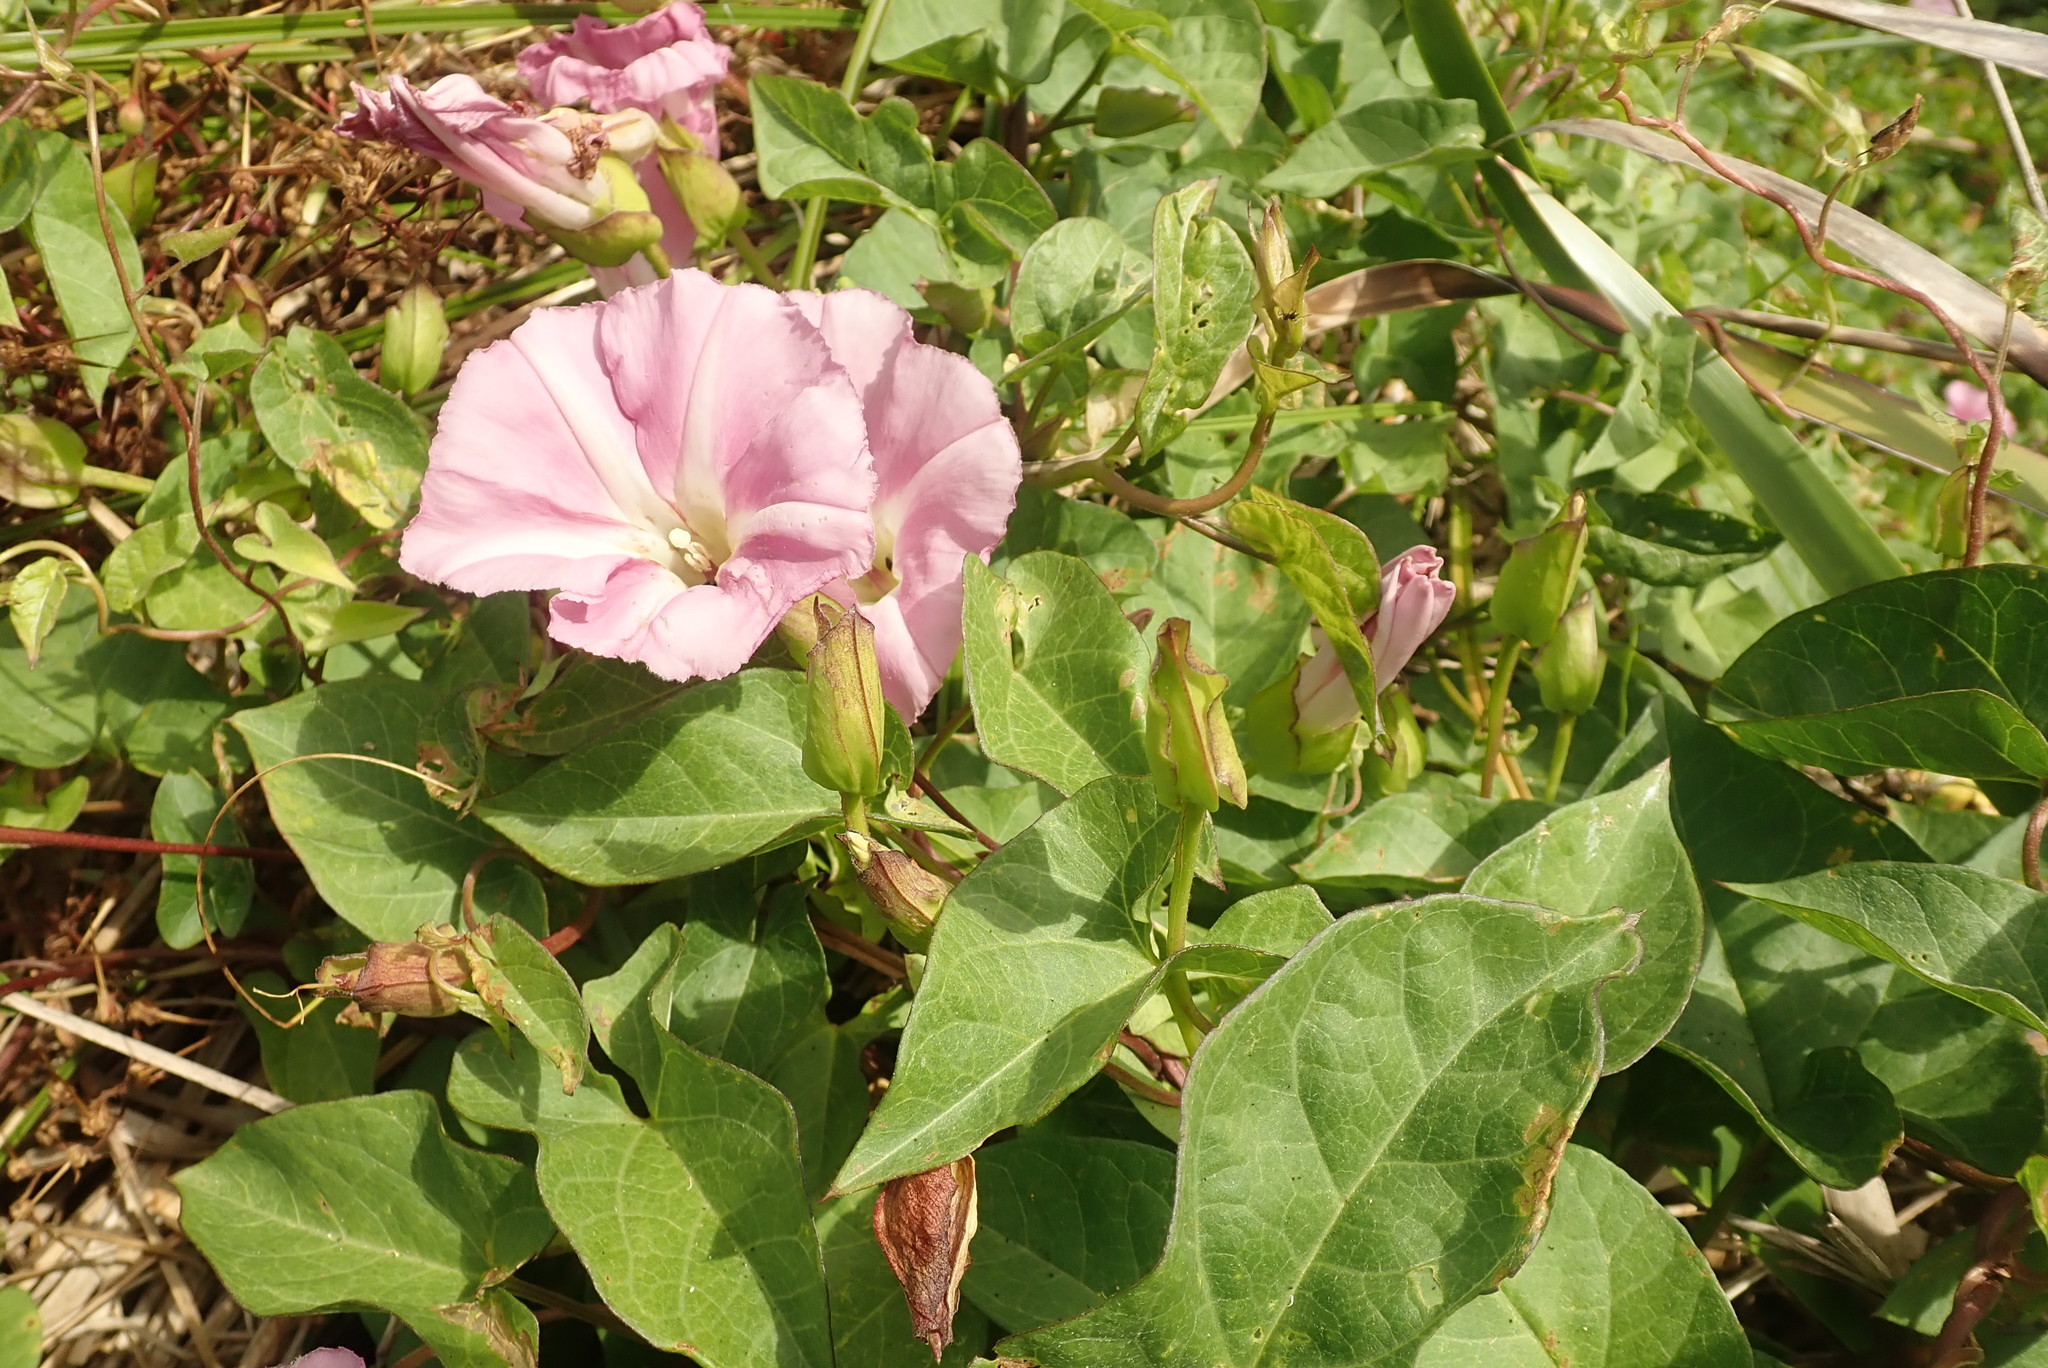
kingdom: Plantae
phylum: Tracheophyta
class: Magnoliopsida
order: Solanales
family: Convolvulaceae
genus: Calystegia
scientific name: Calystegia sepium
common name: Hedge bindweed
